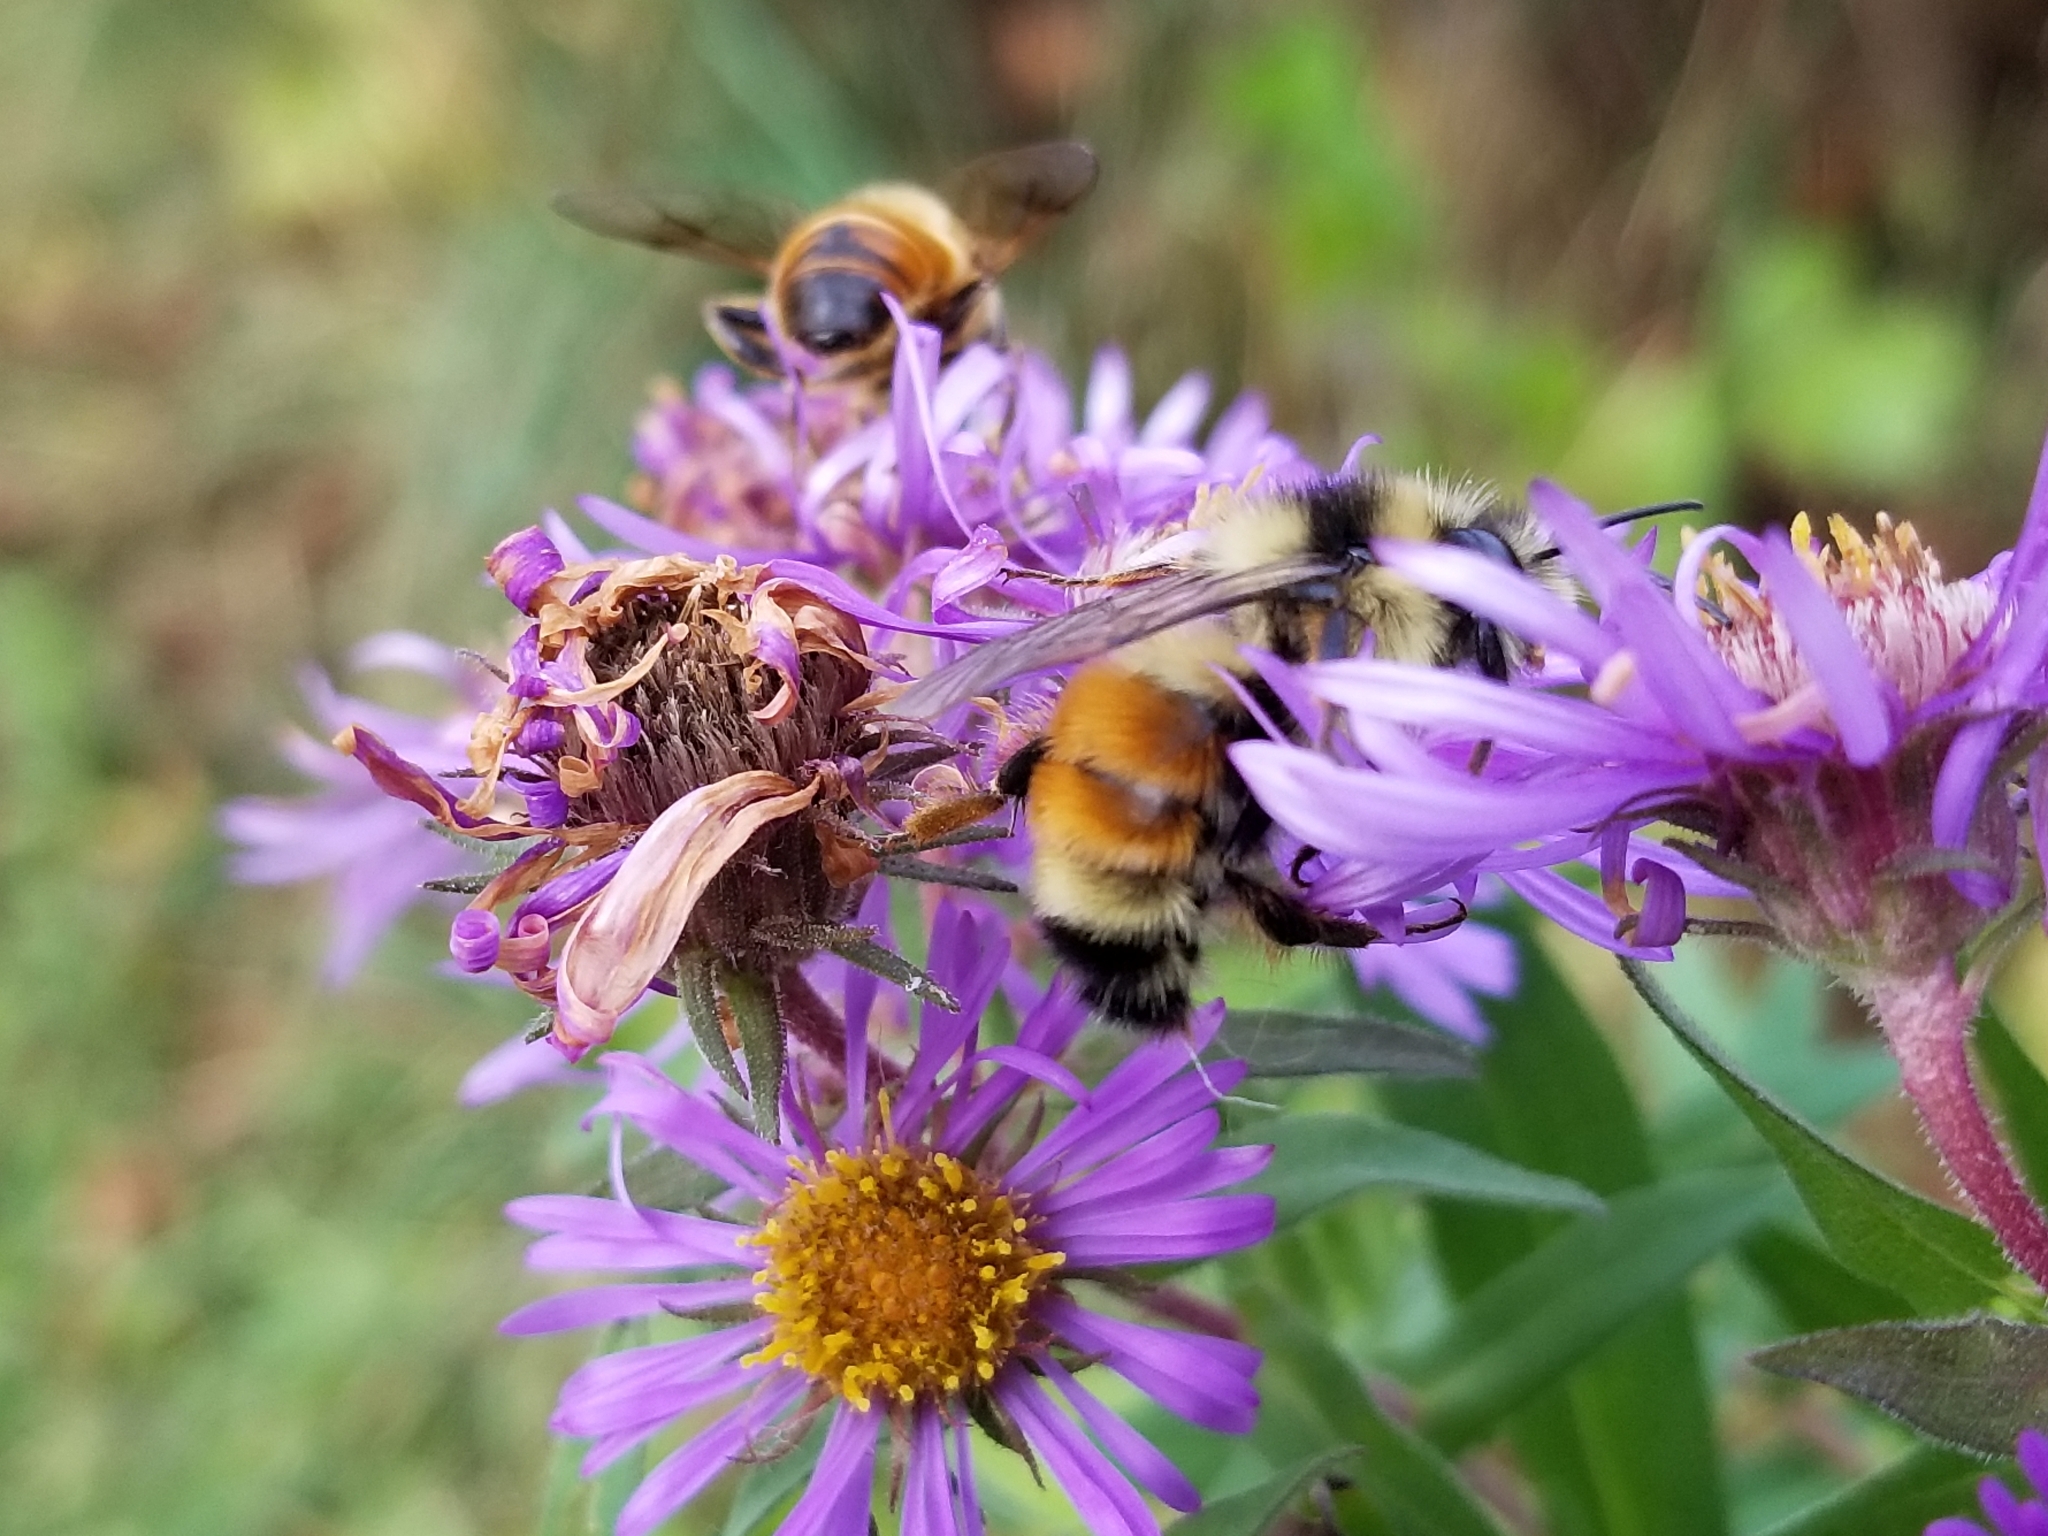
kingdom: Animalia
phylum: Arthropoda
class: Insecta
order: Hymenoptera
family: Apidae
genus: Bombus
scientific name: Bombus ternarius
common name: Tri-colored bumble bee
